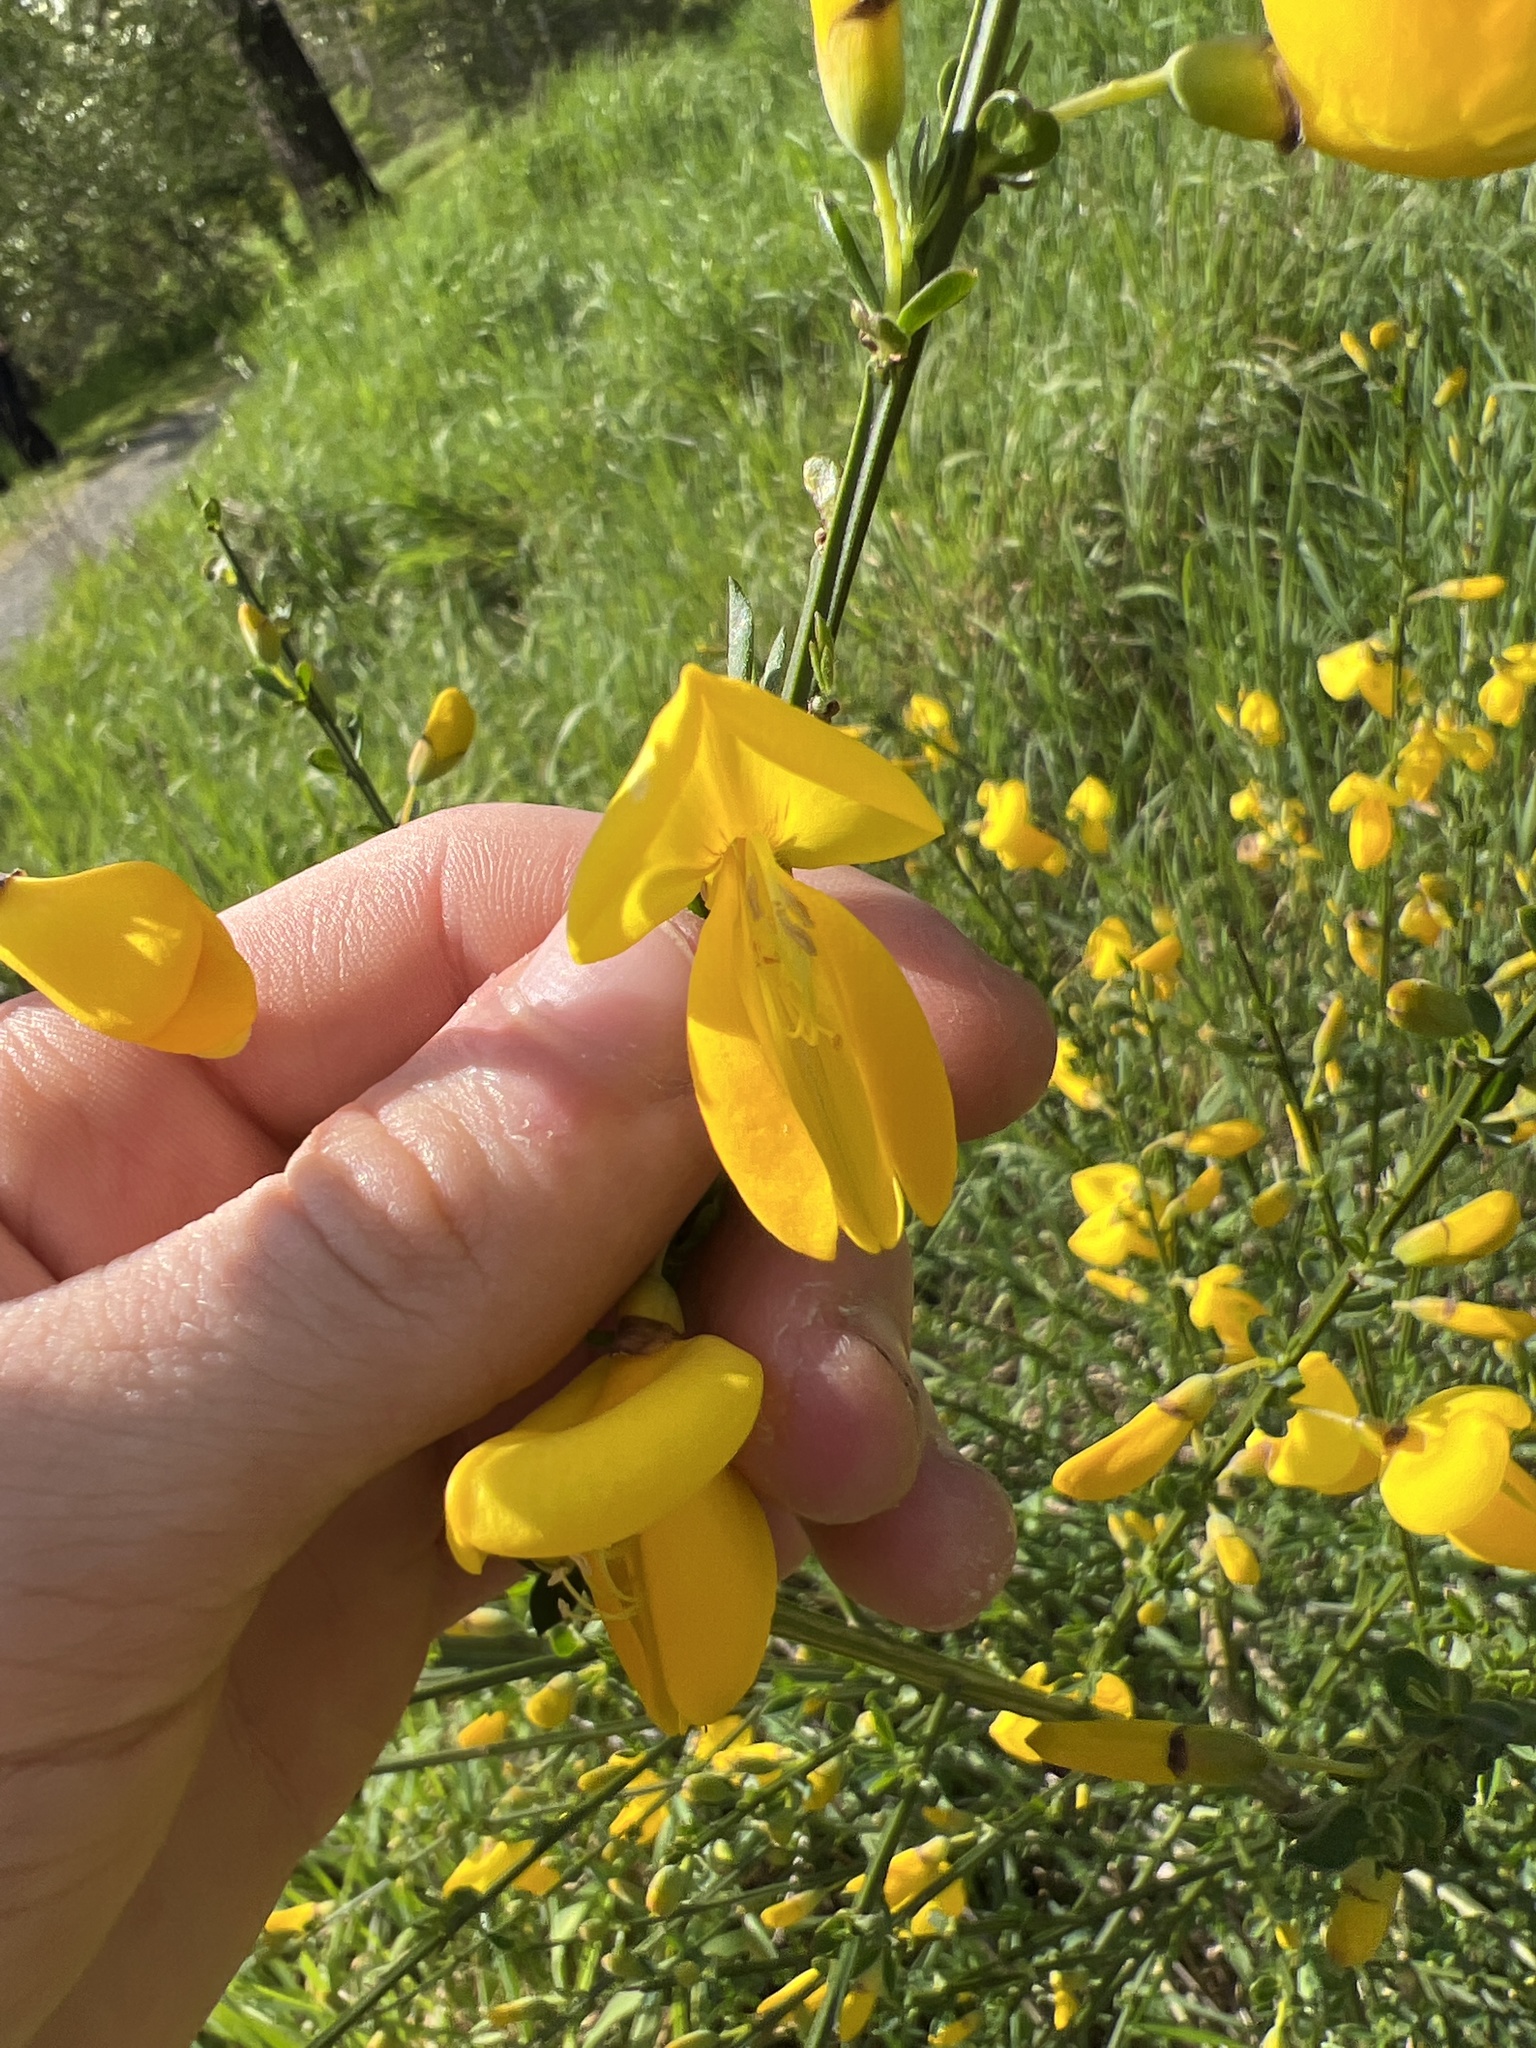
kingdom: Plantae
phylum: Tracheophyta
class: Magnoliopsida
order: Fabales
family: Fabaceae
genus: Cytisus
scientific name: Cytisus scoparius
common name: Scotch broom
